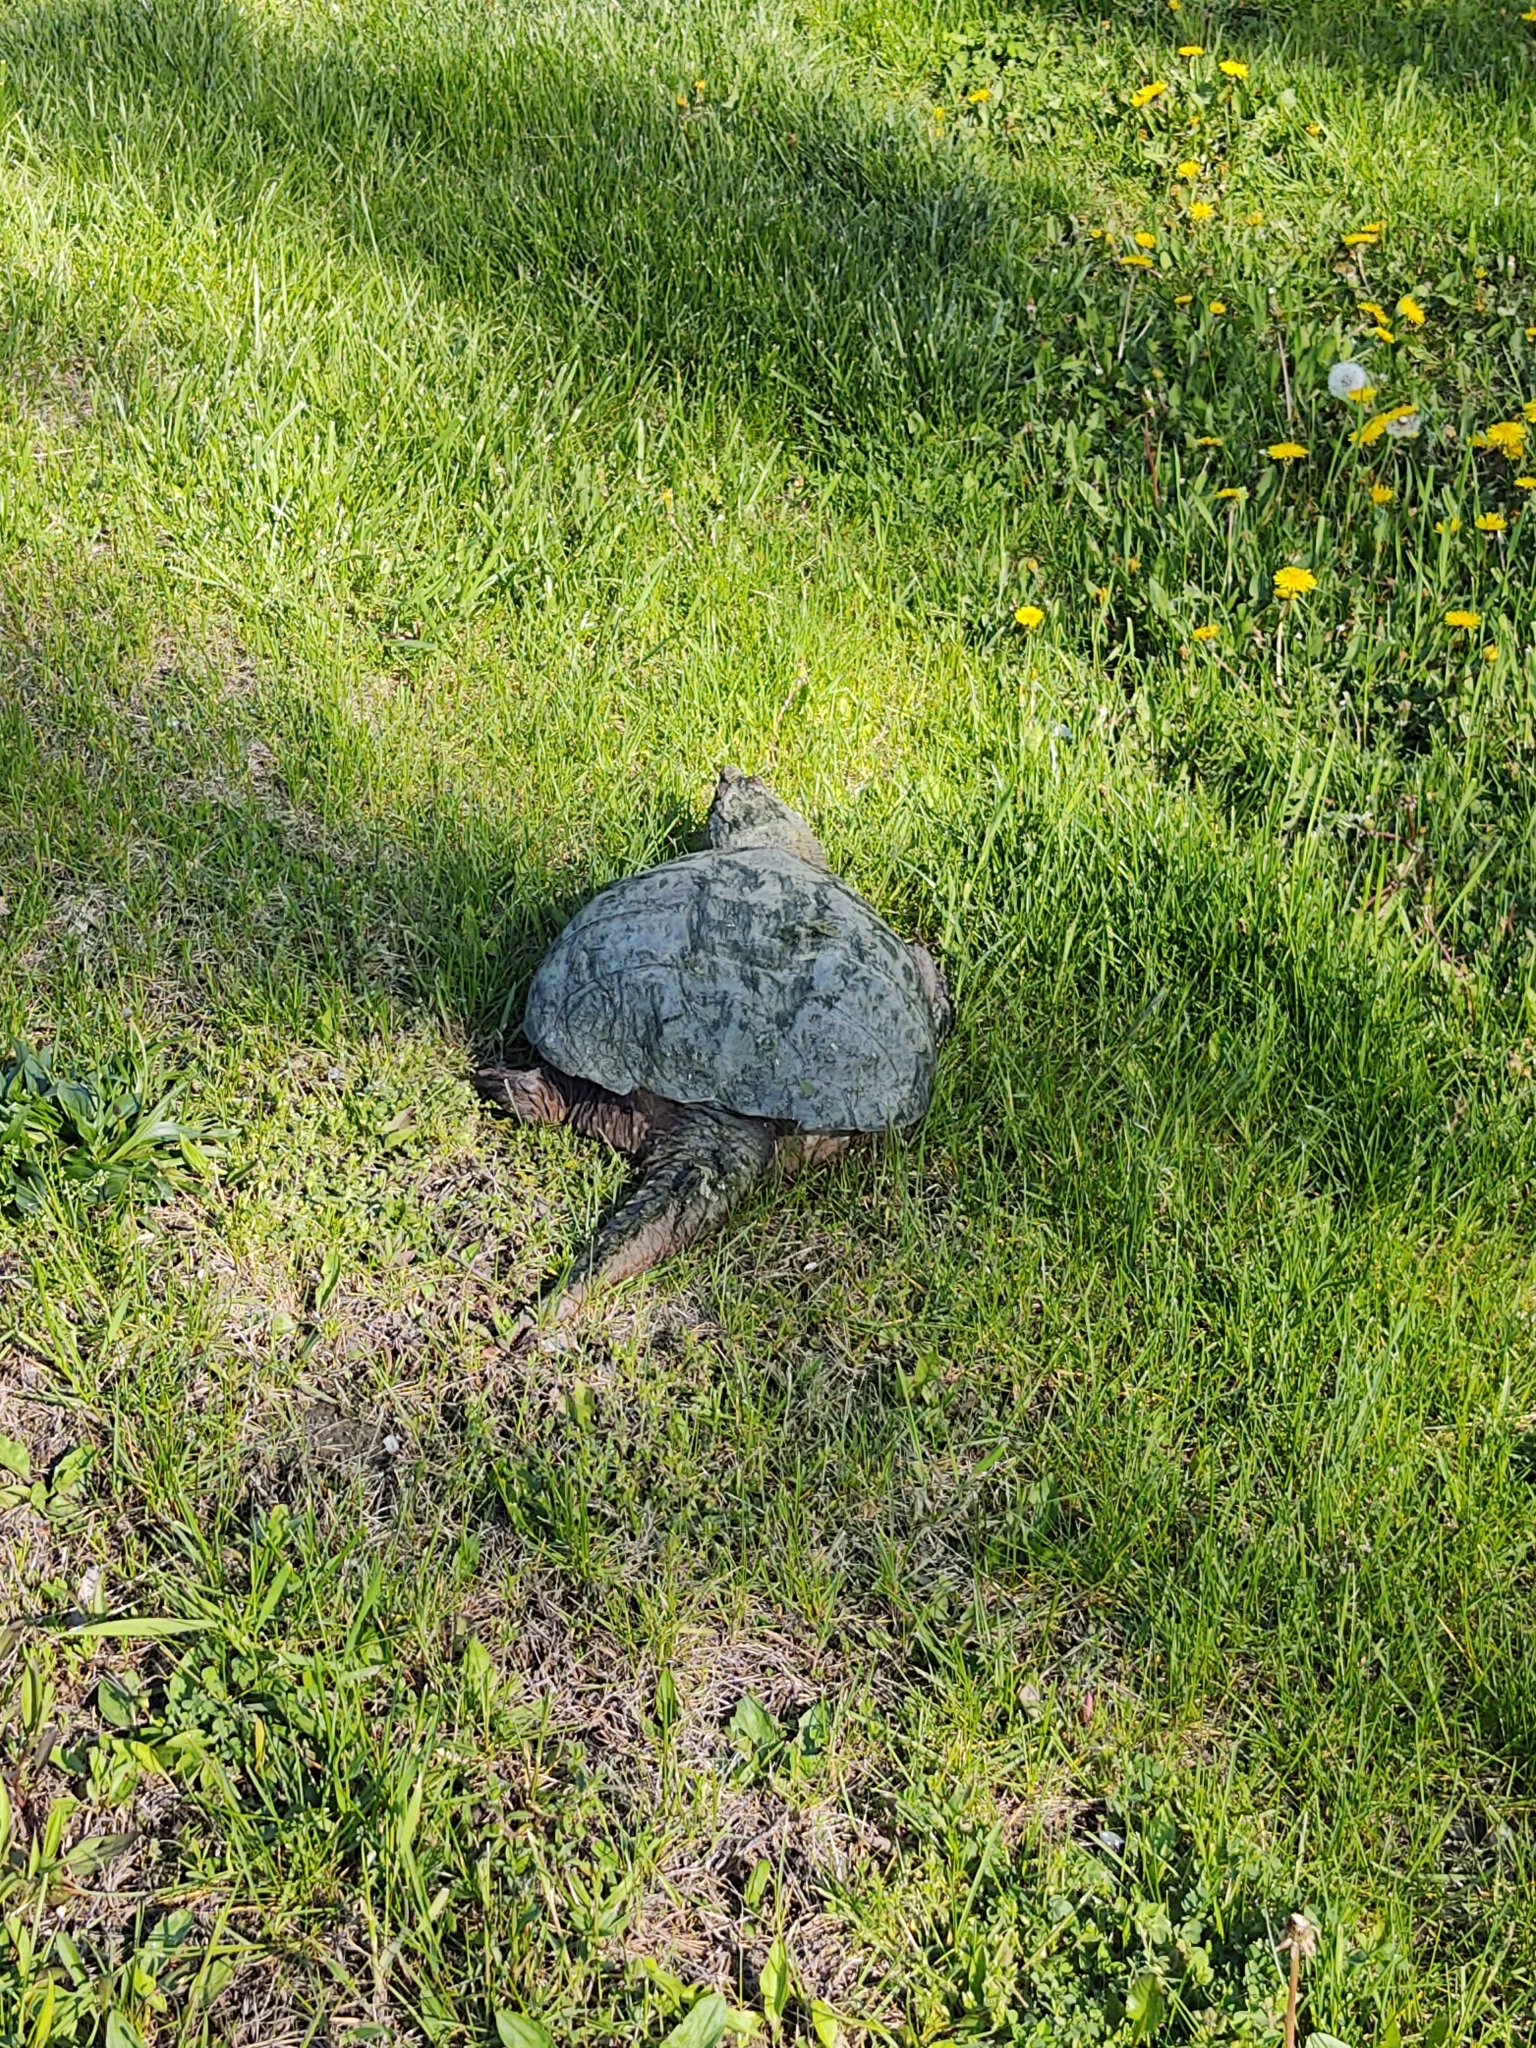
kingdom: Animalia
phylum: Chordata
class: Testudines
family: Chelydridae
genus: Chelydra
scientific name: Chelydra serpentina
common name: Common snapping turtle
